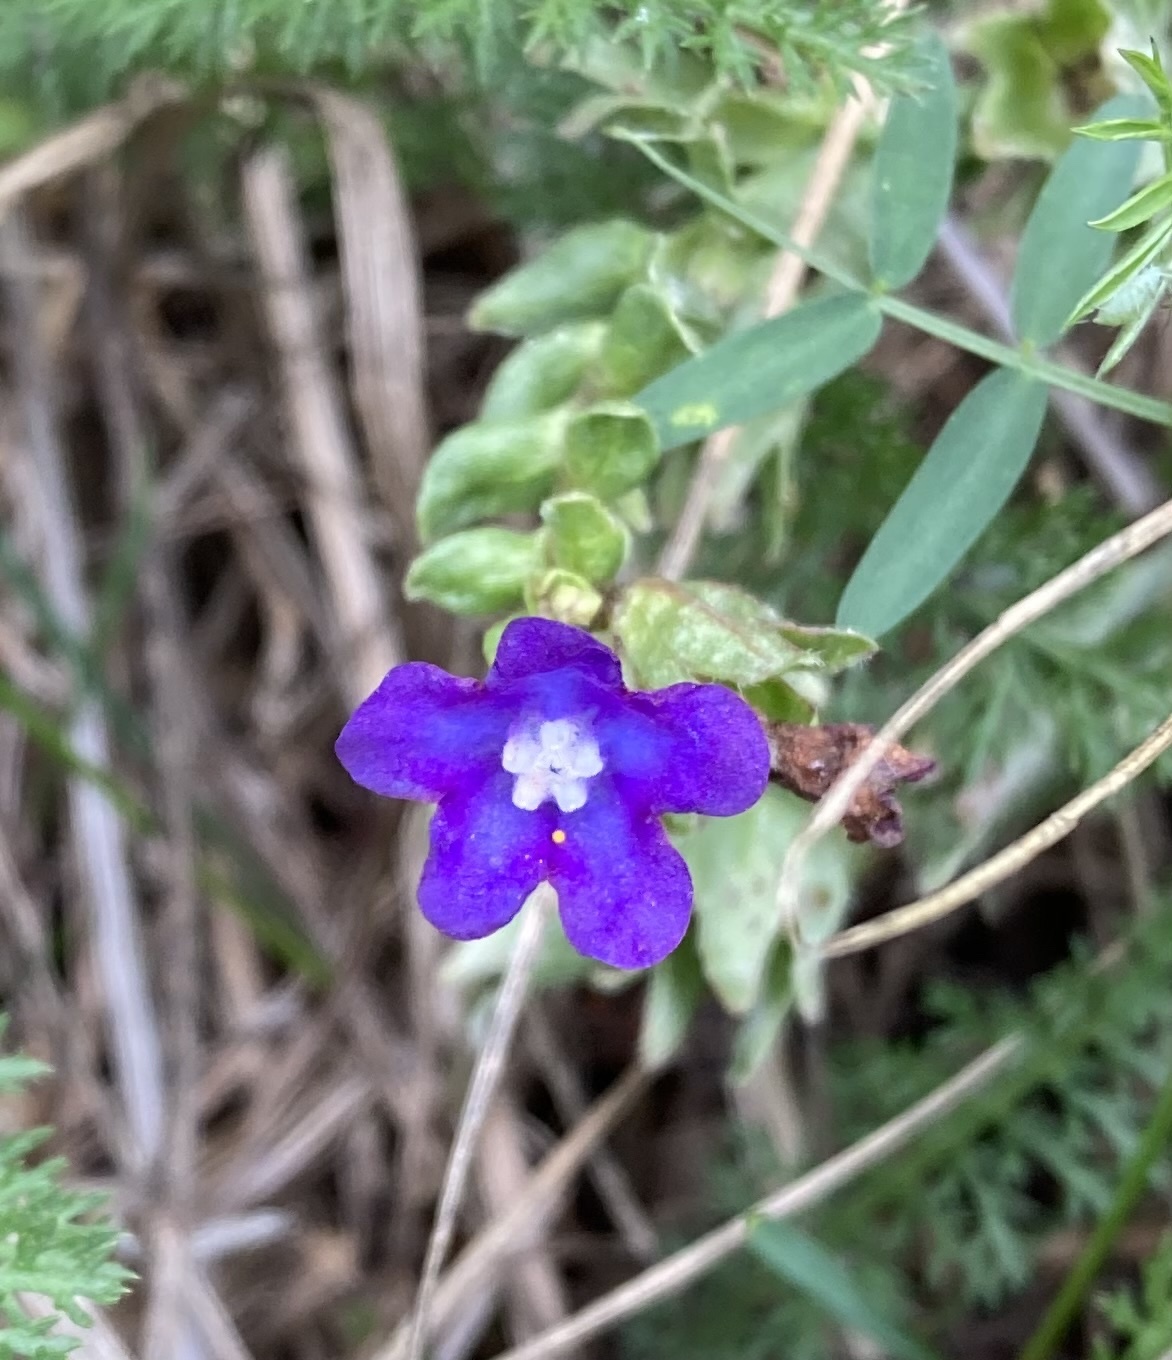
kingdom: Plantae
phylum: Tracheophyta
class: Magnoliopsida
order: Boraginales
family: Boraginaceae
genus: Anchusa
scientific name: Anchusa officinalis
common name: Alkanet
